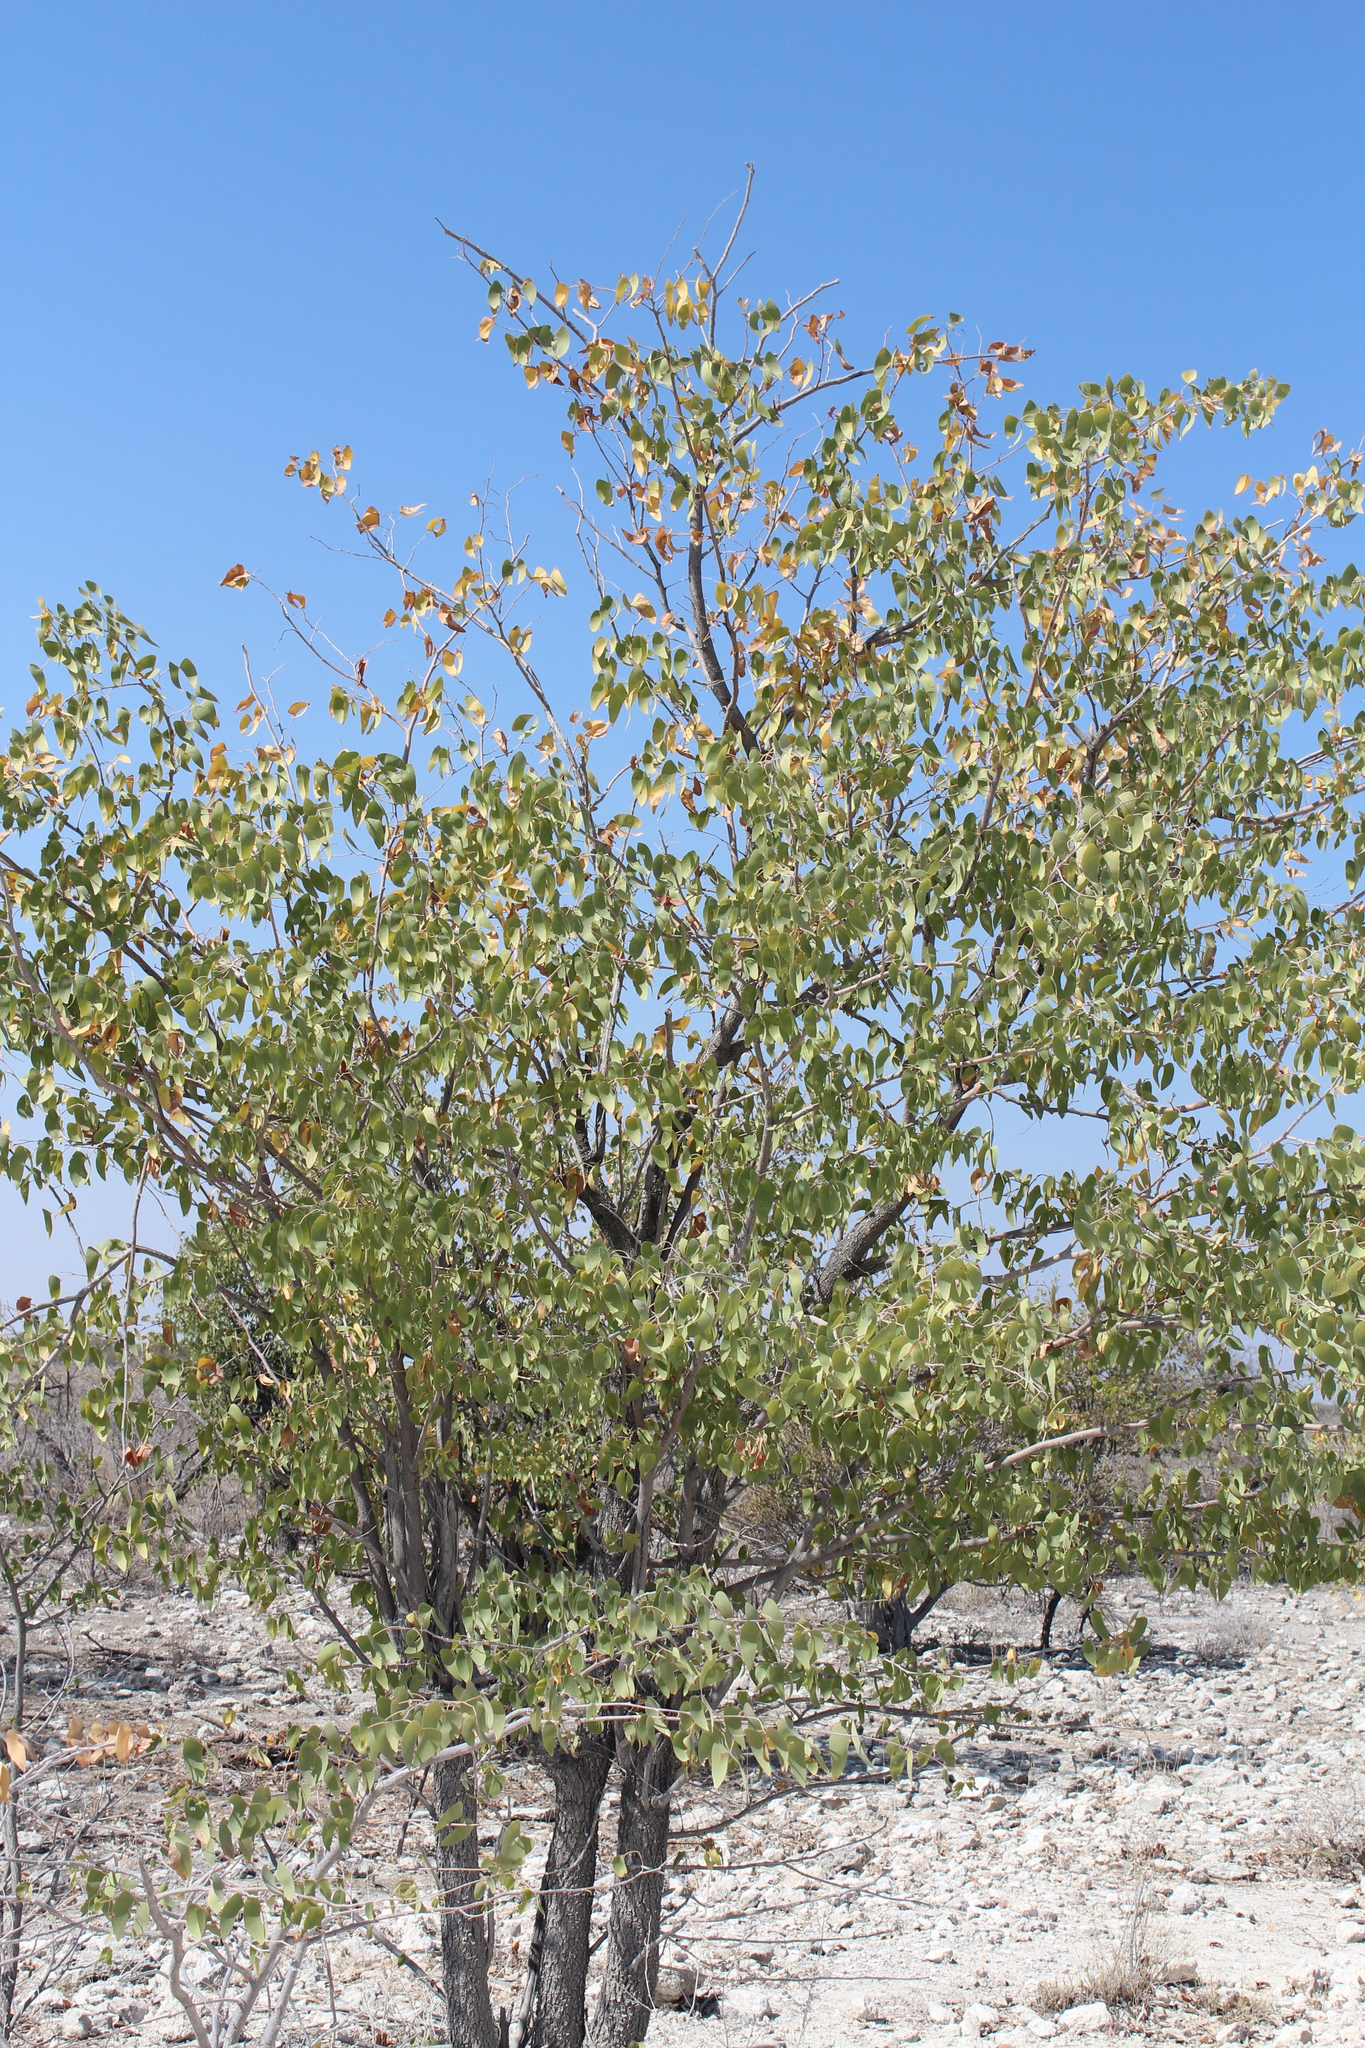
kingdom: Plantae
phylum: Tracheophyta
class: Magnoliopsida
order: Fabales
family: Fabaceae
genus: Colophospermum
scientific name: Colophospermum mopane
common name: Mopane
